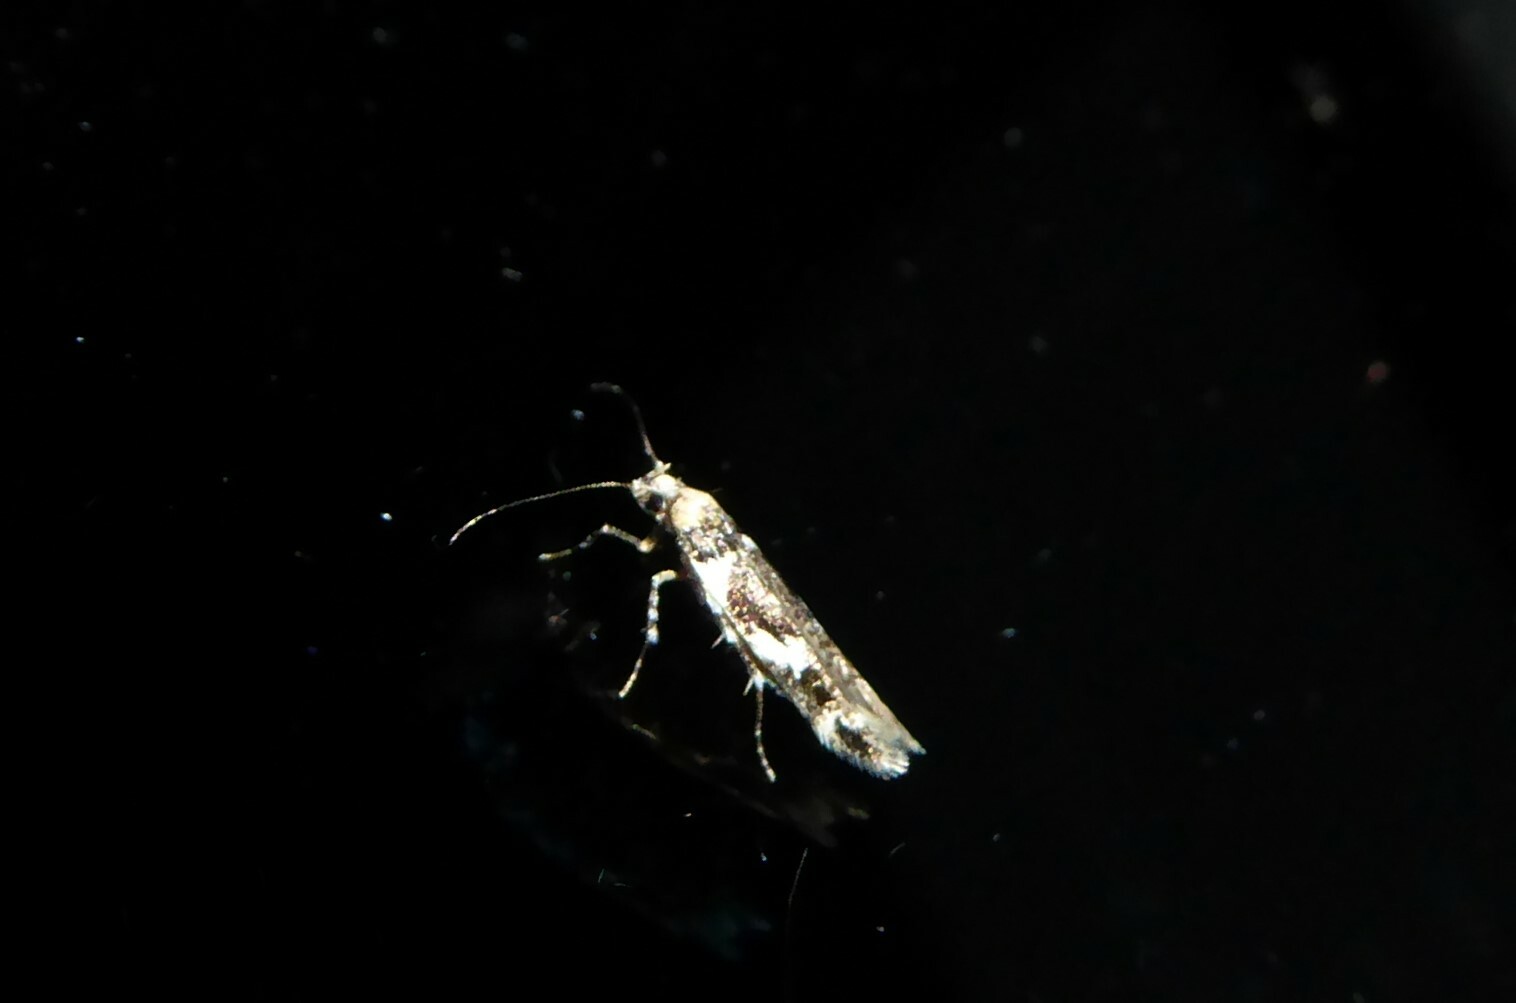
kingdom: Animalia
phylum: Arthropoda
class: Insecta
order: Lepidoptera
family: Cosmopterigidae
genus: Pyroderces
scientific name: Pyroderces deamatella
